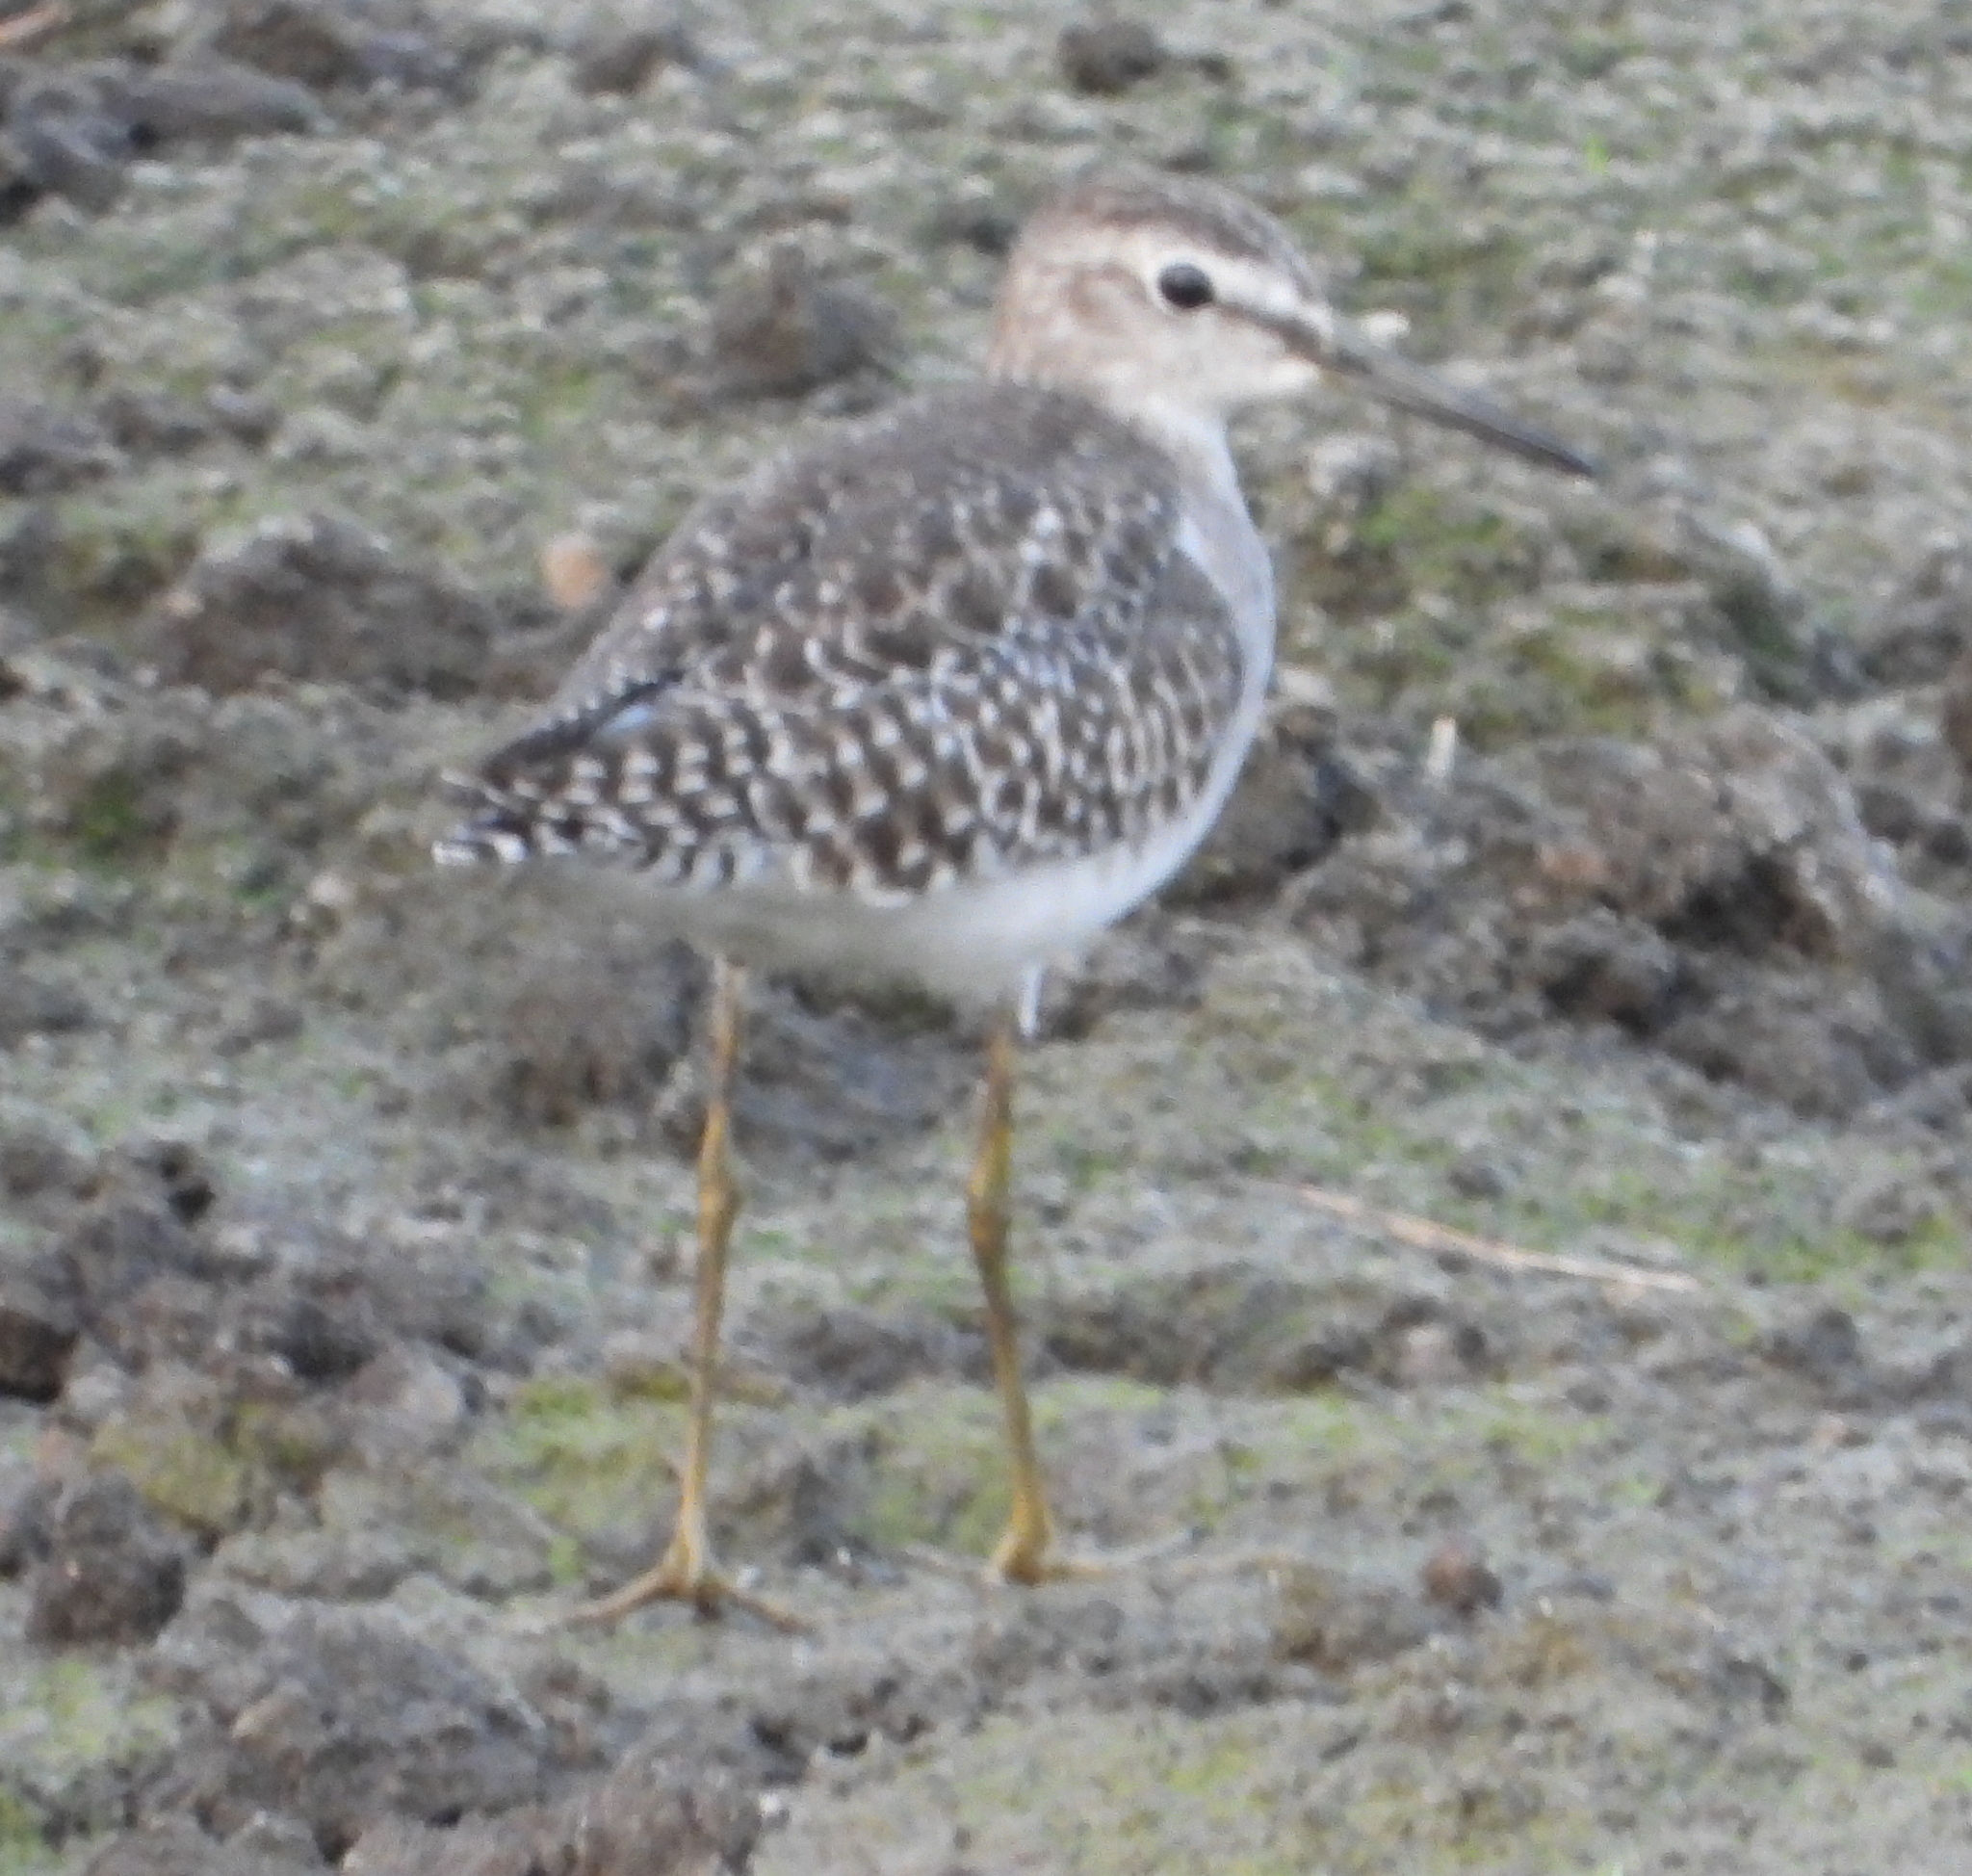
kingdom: Animalia
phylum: Chordata
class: Aves
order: Charadriiformes
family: Scolopacidae
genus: Tringa
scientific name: Tringa glareola
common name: Wood sandpiper
